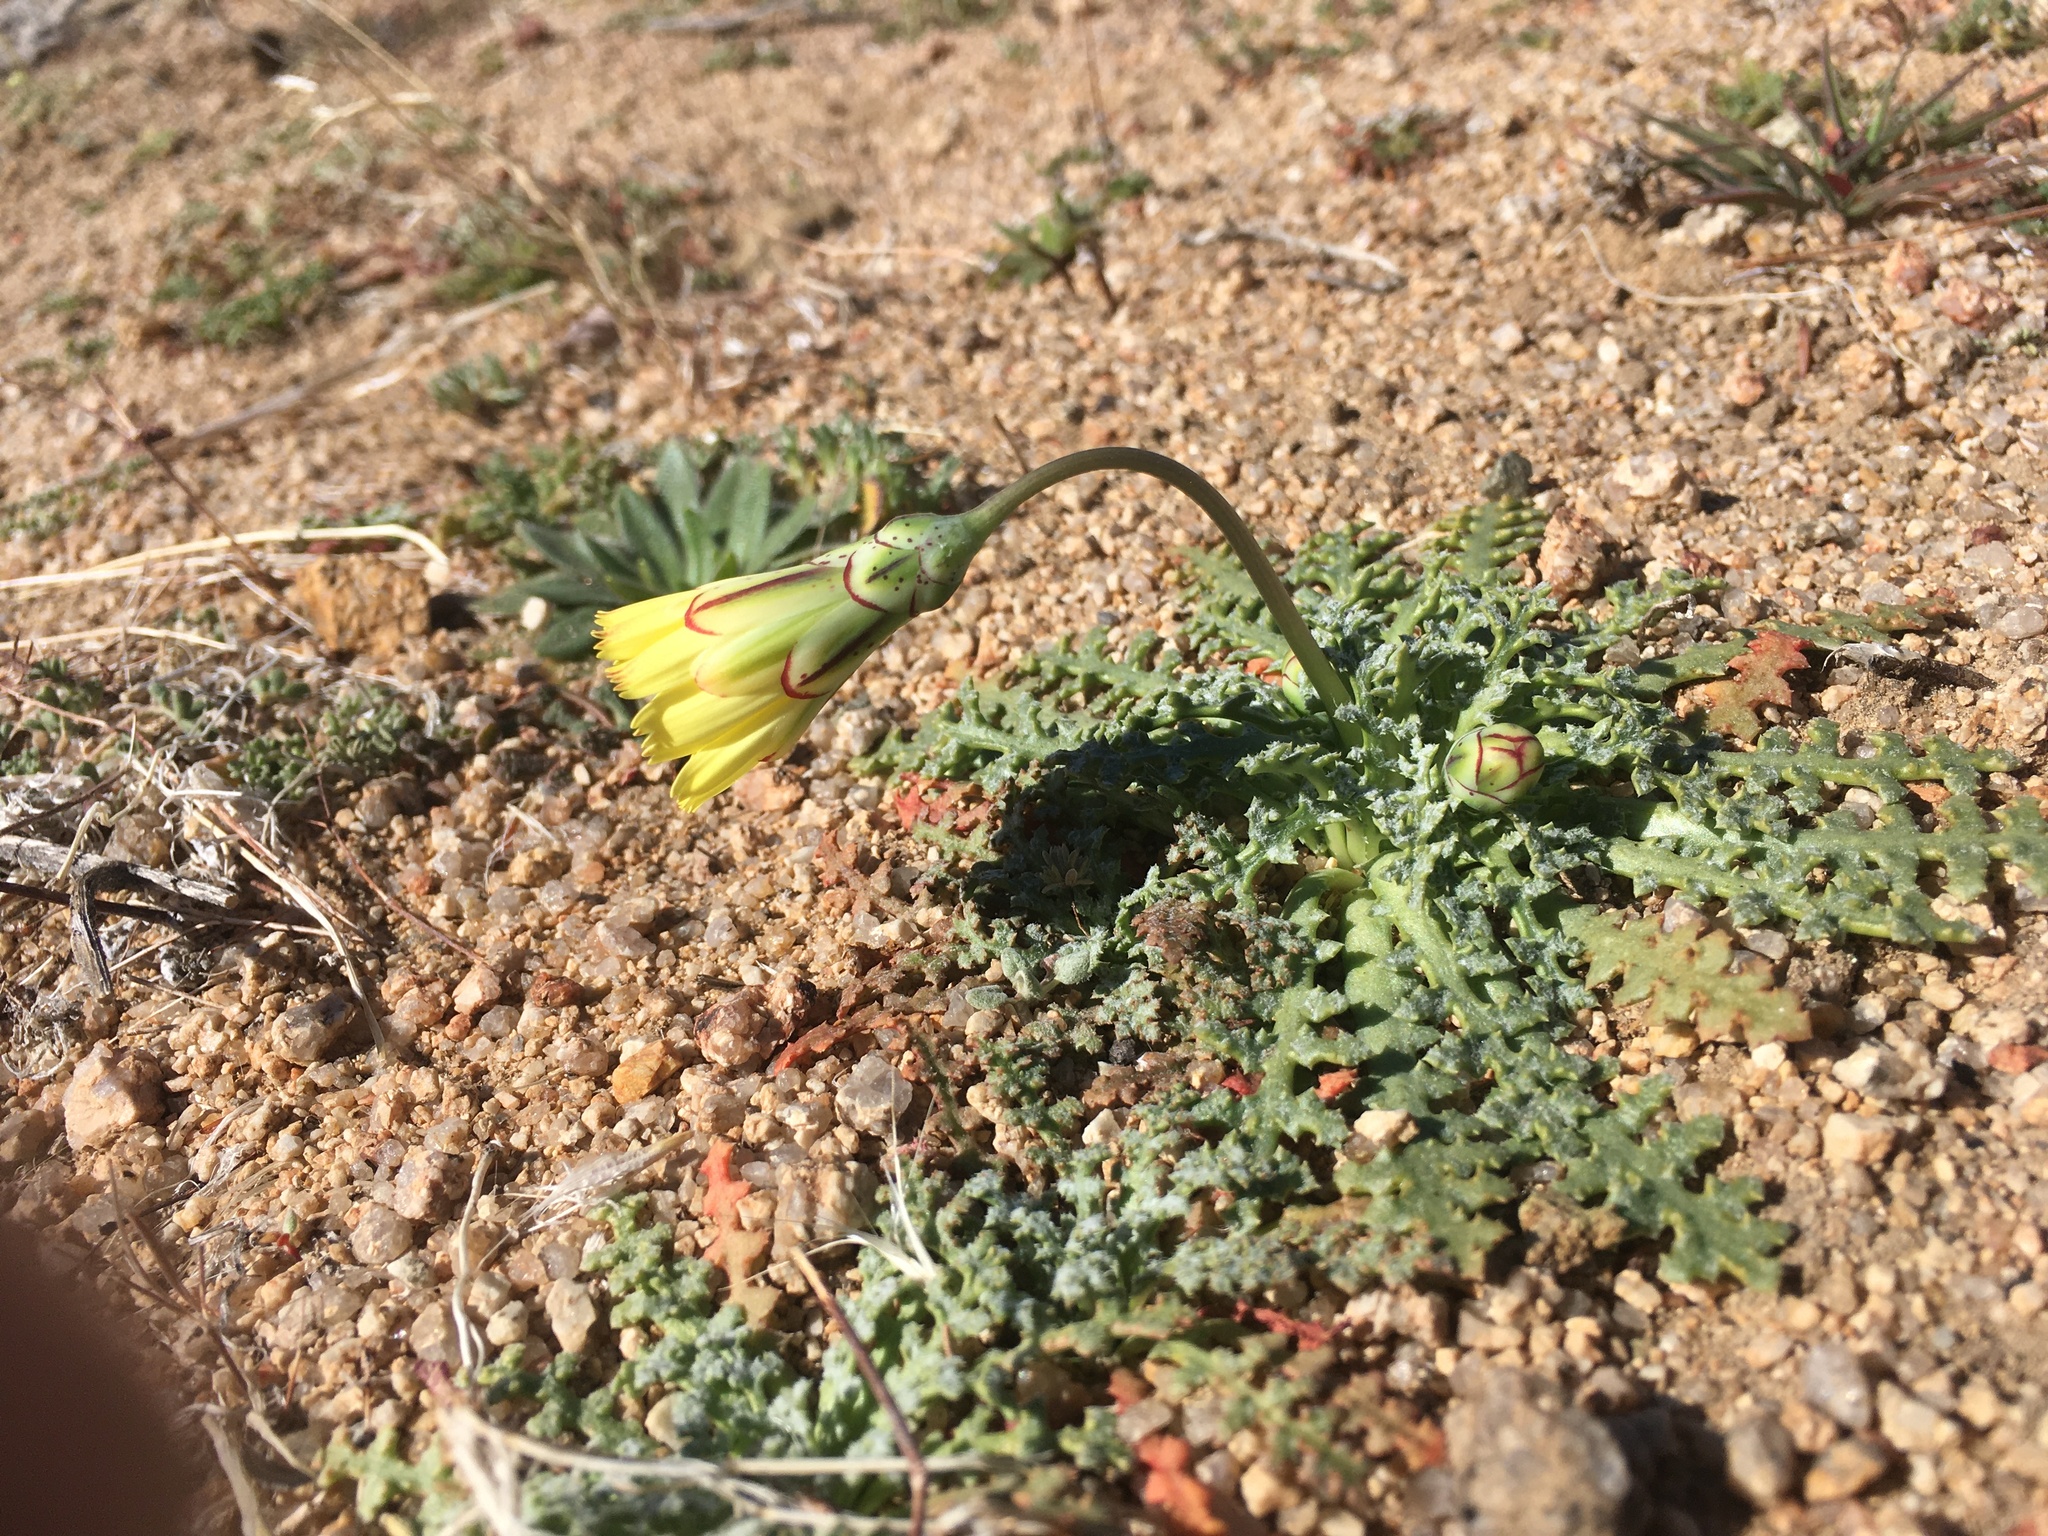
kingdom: Plantae
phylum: Tracheophyta
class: Magnoliopsida
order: Asterales
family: Asteraceae
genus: Anisocoma
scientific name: Anisocoma acaulis
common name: Scalebud
